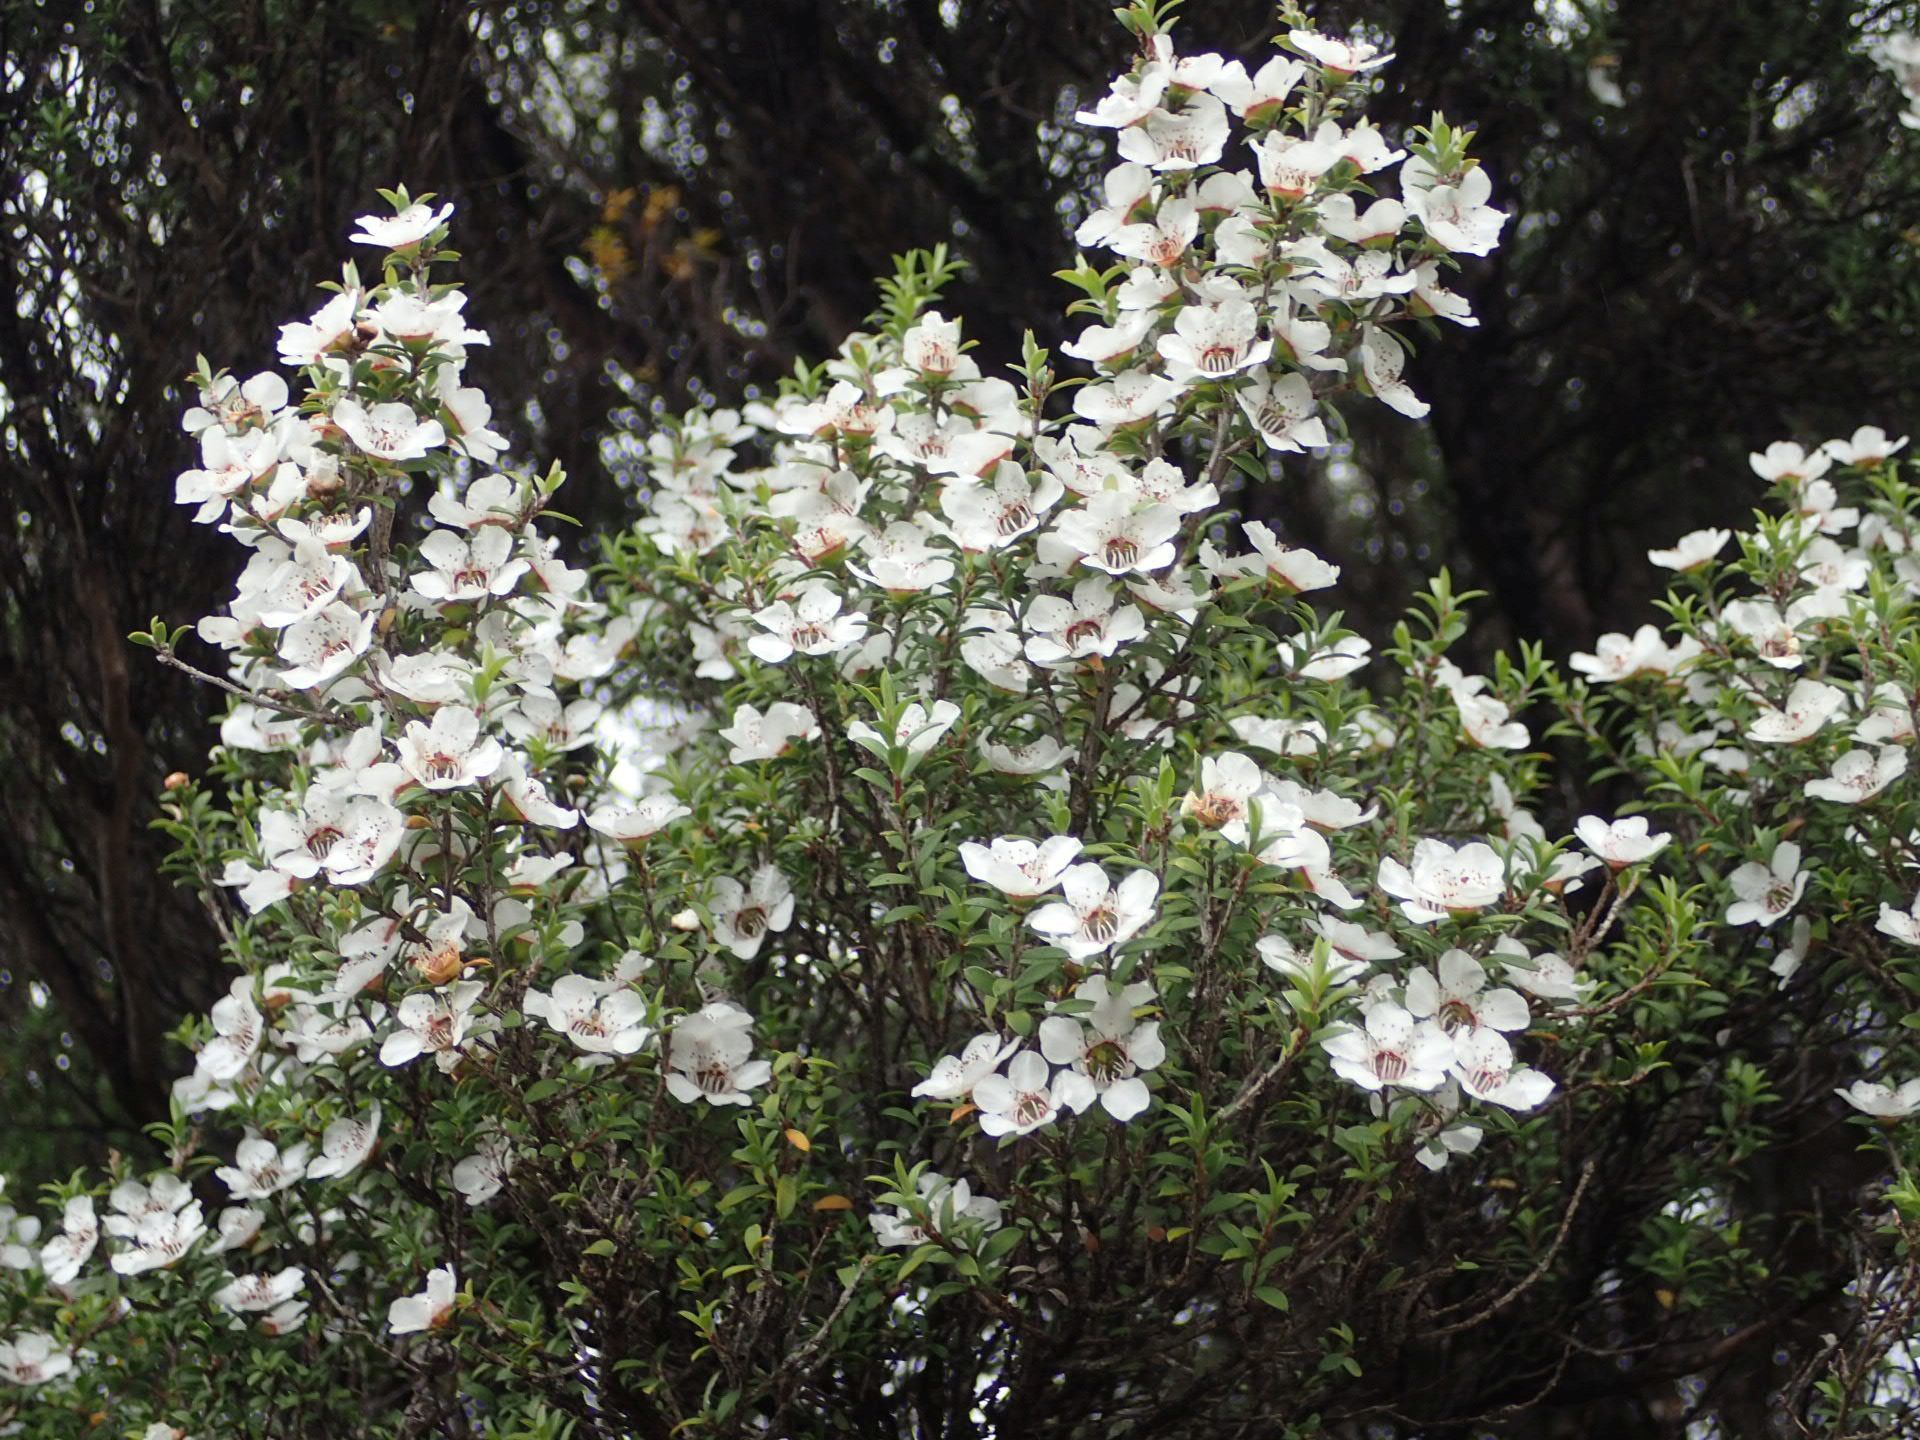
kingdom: Plantae
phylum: Tracheophyta
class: Magnoliopsida
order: Myrtales
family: Myrtaceae
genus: Leptospermum
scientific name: Leptospermum scoparium
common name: Broom tea-tree
